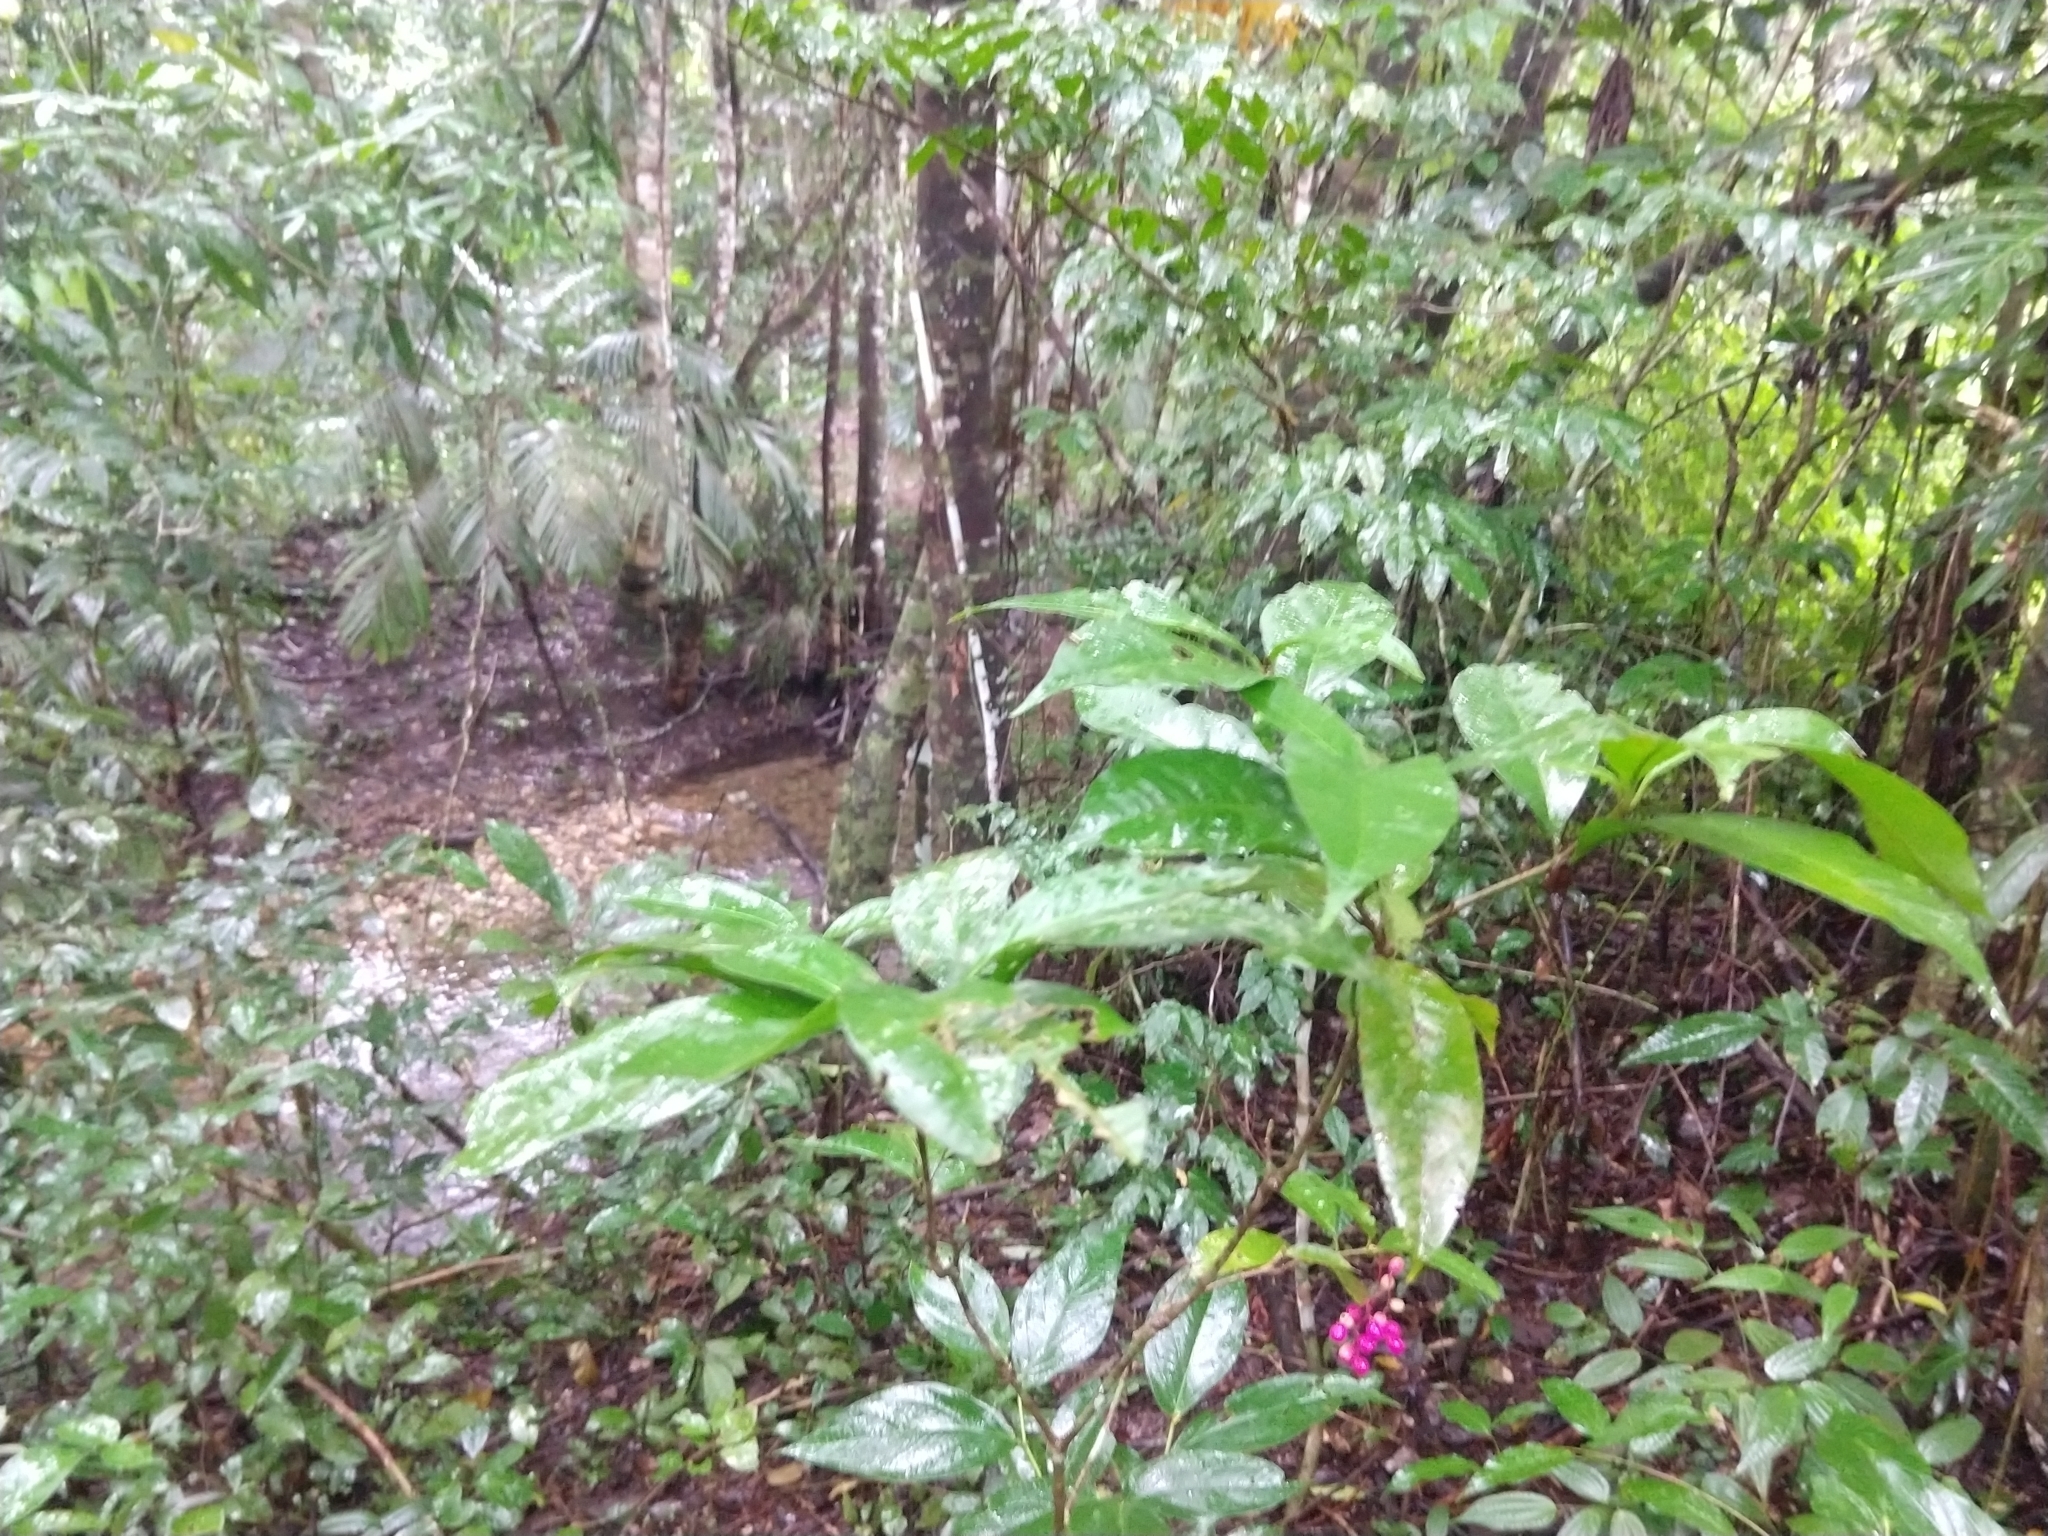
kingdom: Plantae
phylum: Tracheophyta
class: Magnoliopsida
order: Caryophyllales
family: Nyctaginaceae
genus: Neea
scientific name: Neea tenuis
